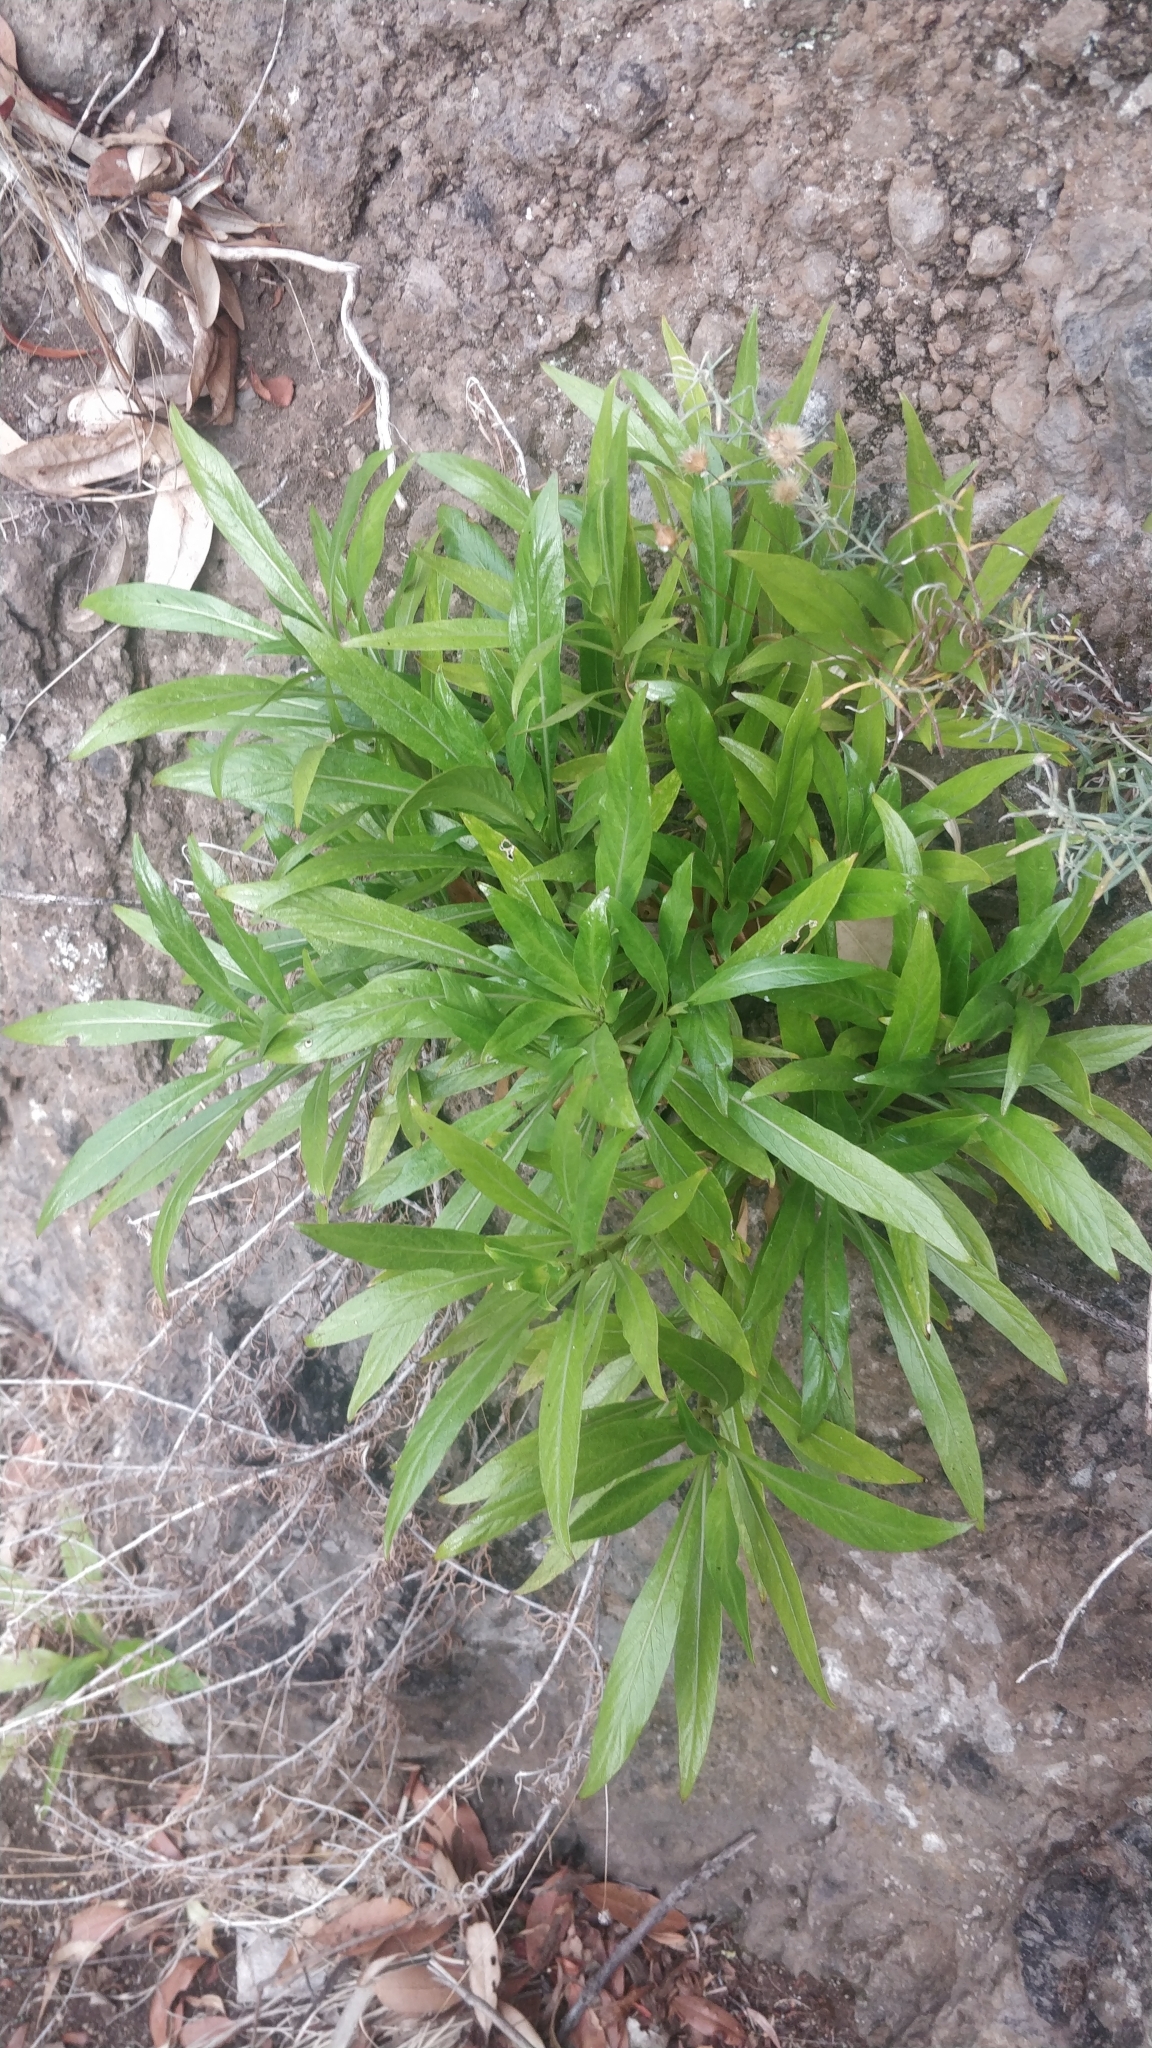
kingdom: Plantae
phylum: Tracheophyta
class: Magnoliopsida
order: Gentianales
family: Rubiaceae
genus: Phyllis
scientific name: Phyllis nobla
